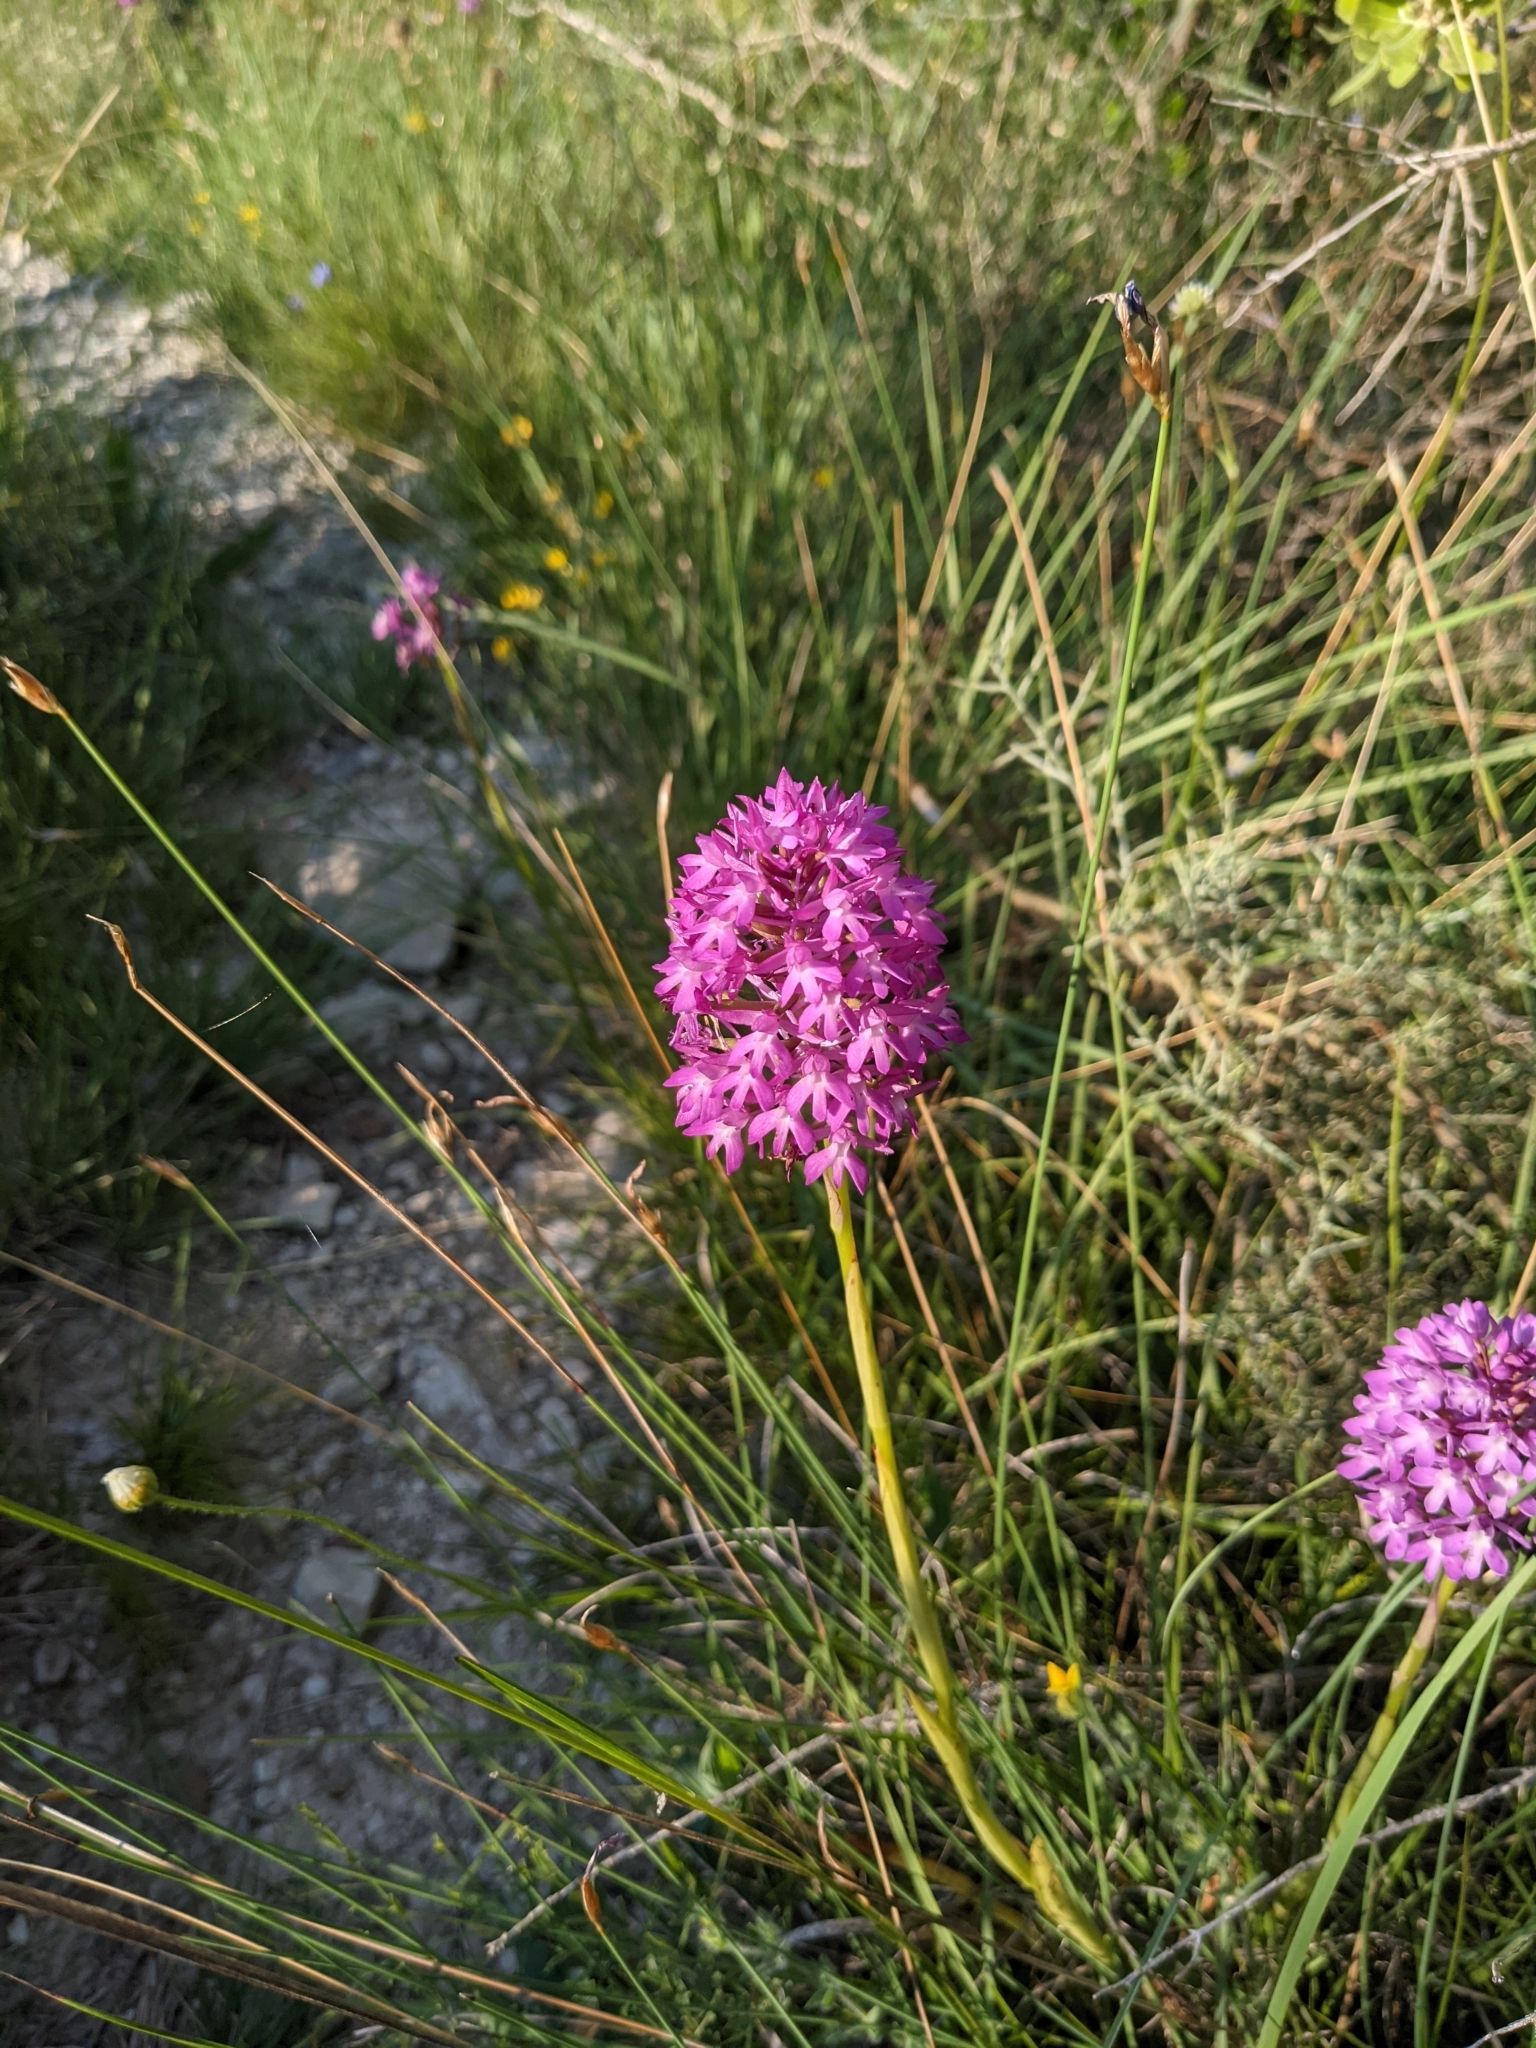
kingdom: Plantae
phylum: Tracheophyta
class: Liliopsida
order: Asparagales
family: Orchidaceae
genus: Anacamptis
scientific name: Anacamptis pyramidalis
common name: Pyramidal orchid
